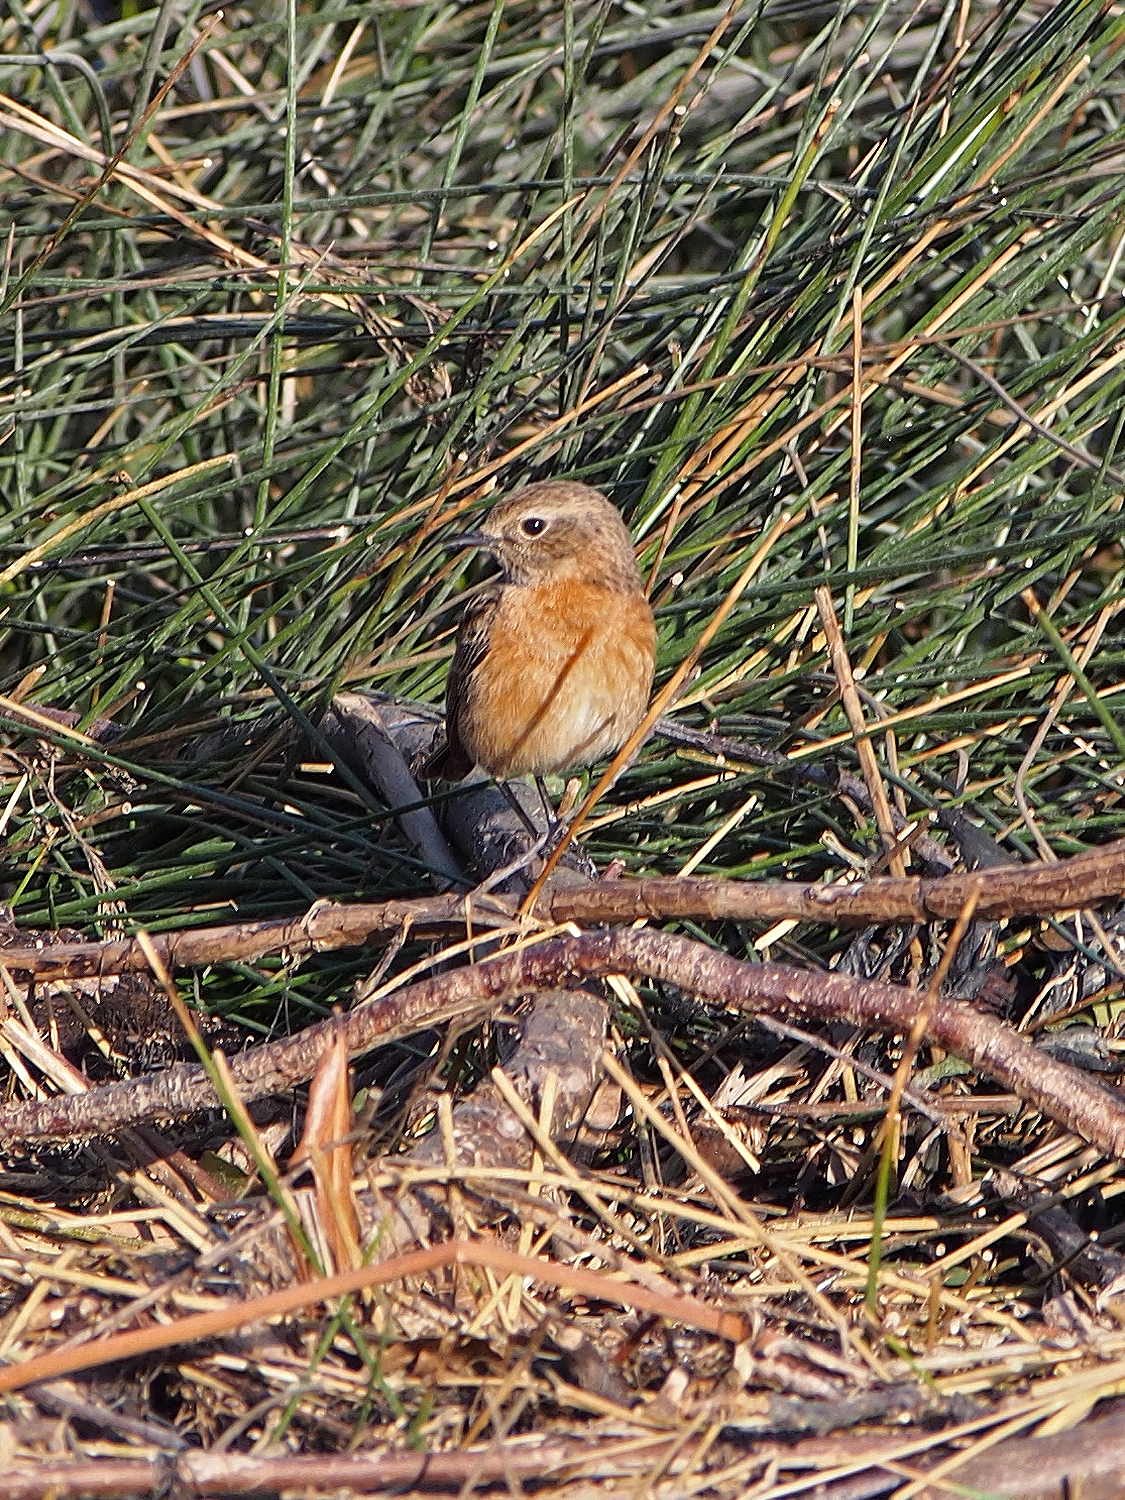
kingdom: Animalia
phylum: Chordata
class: Aves
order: Passeriformes
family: Muscicapidae
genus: Saxicola
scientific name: Saxicola rubicola
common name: European stonechat
